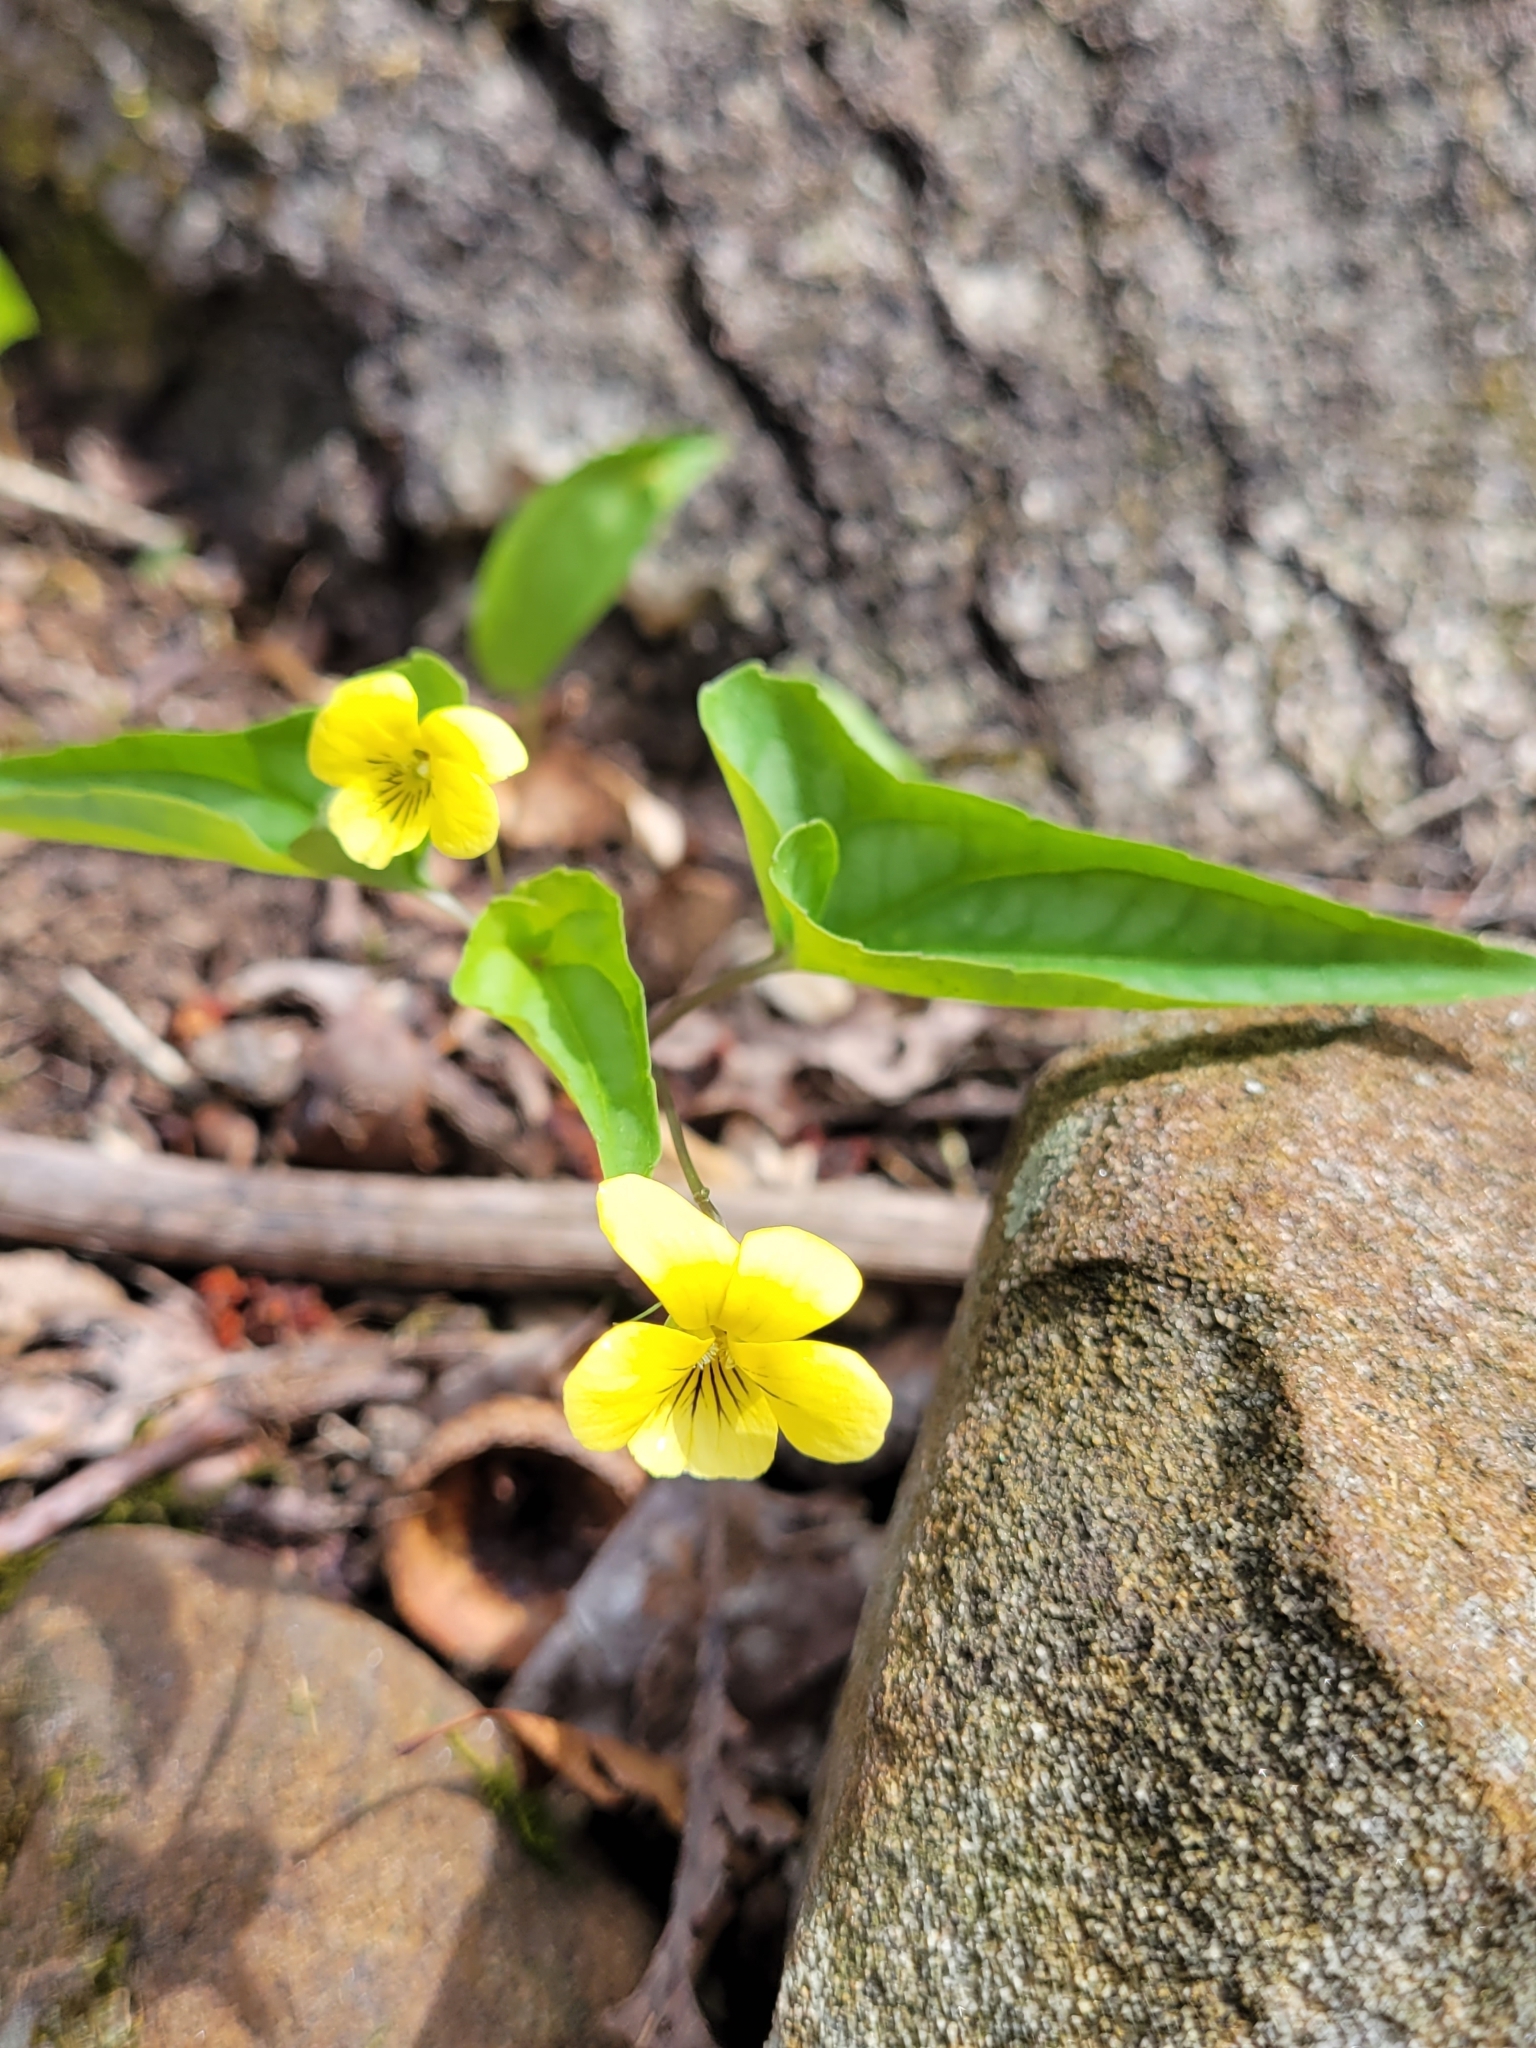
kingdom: Plantae
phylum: Tracheophyta
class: Magnoliopsida
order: Malpighiales
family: Violaceae
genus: Viola
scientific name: Viola hastata
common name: Spear-leaf violet
